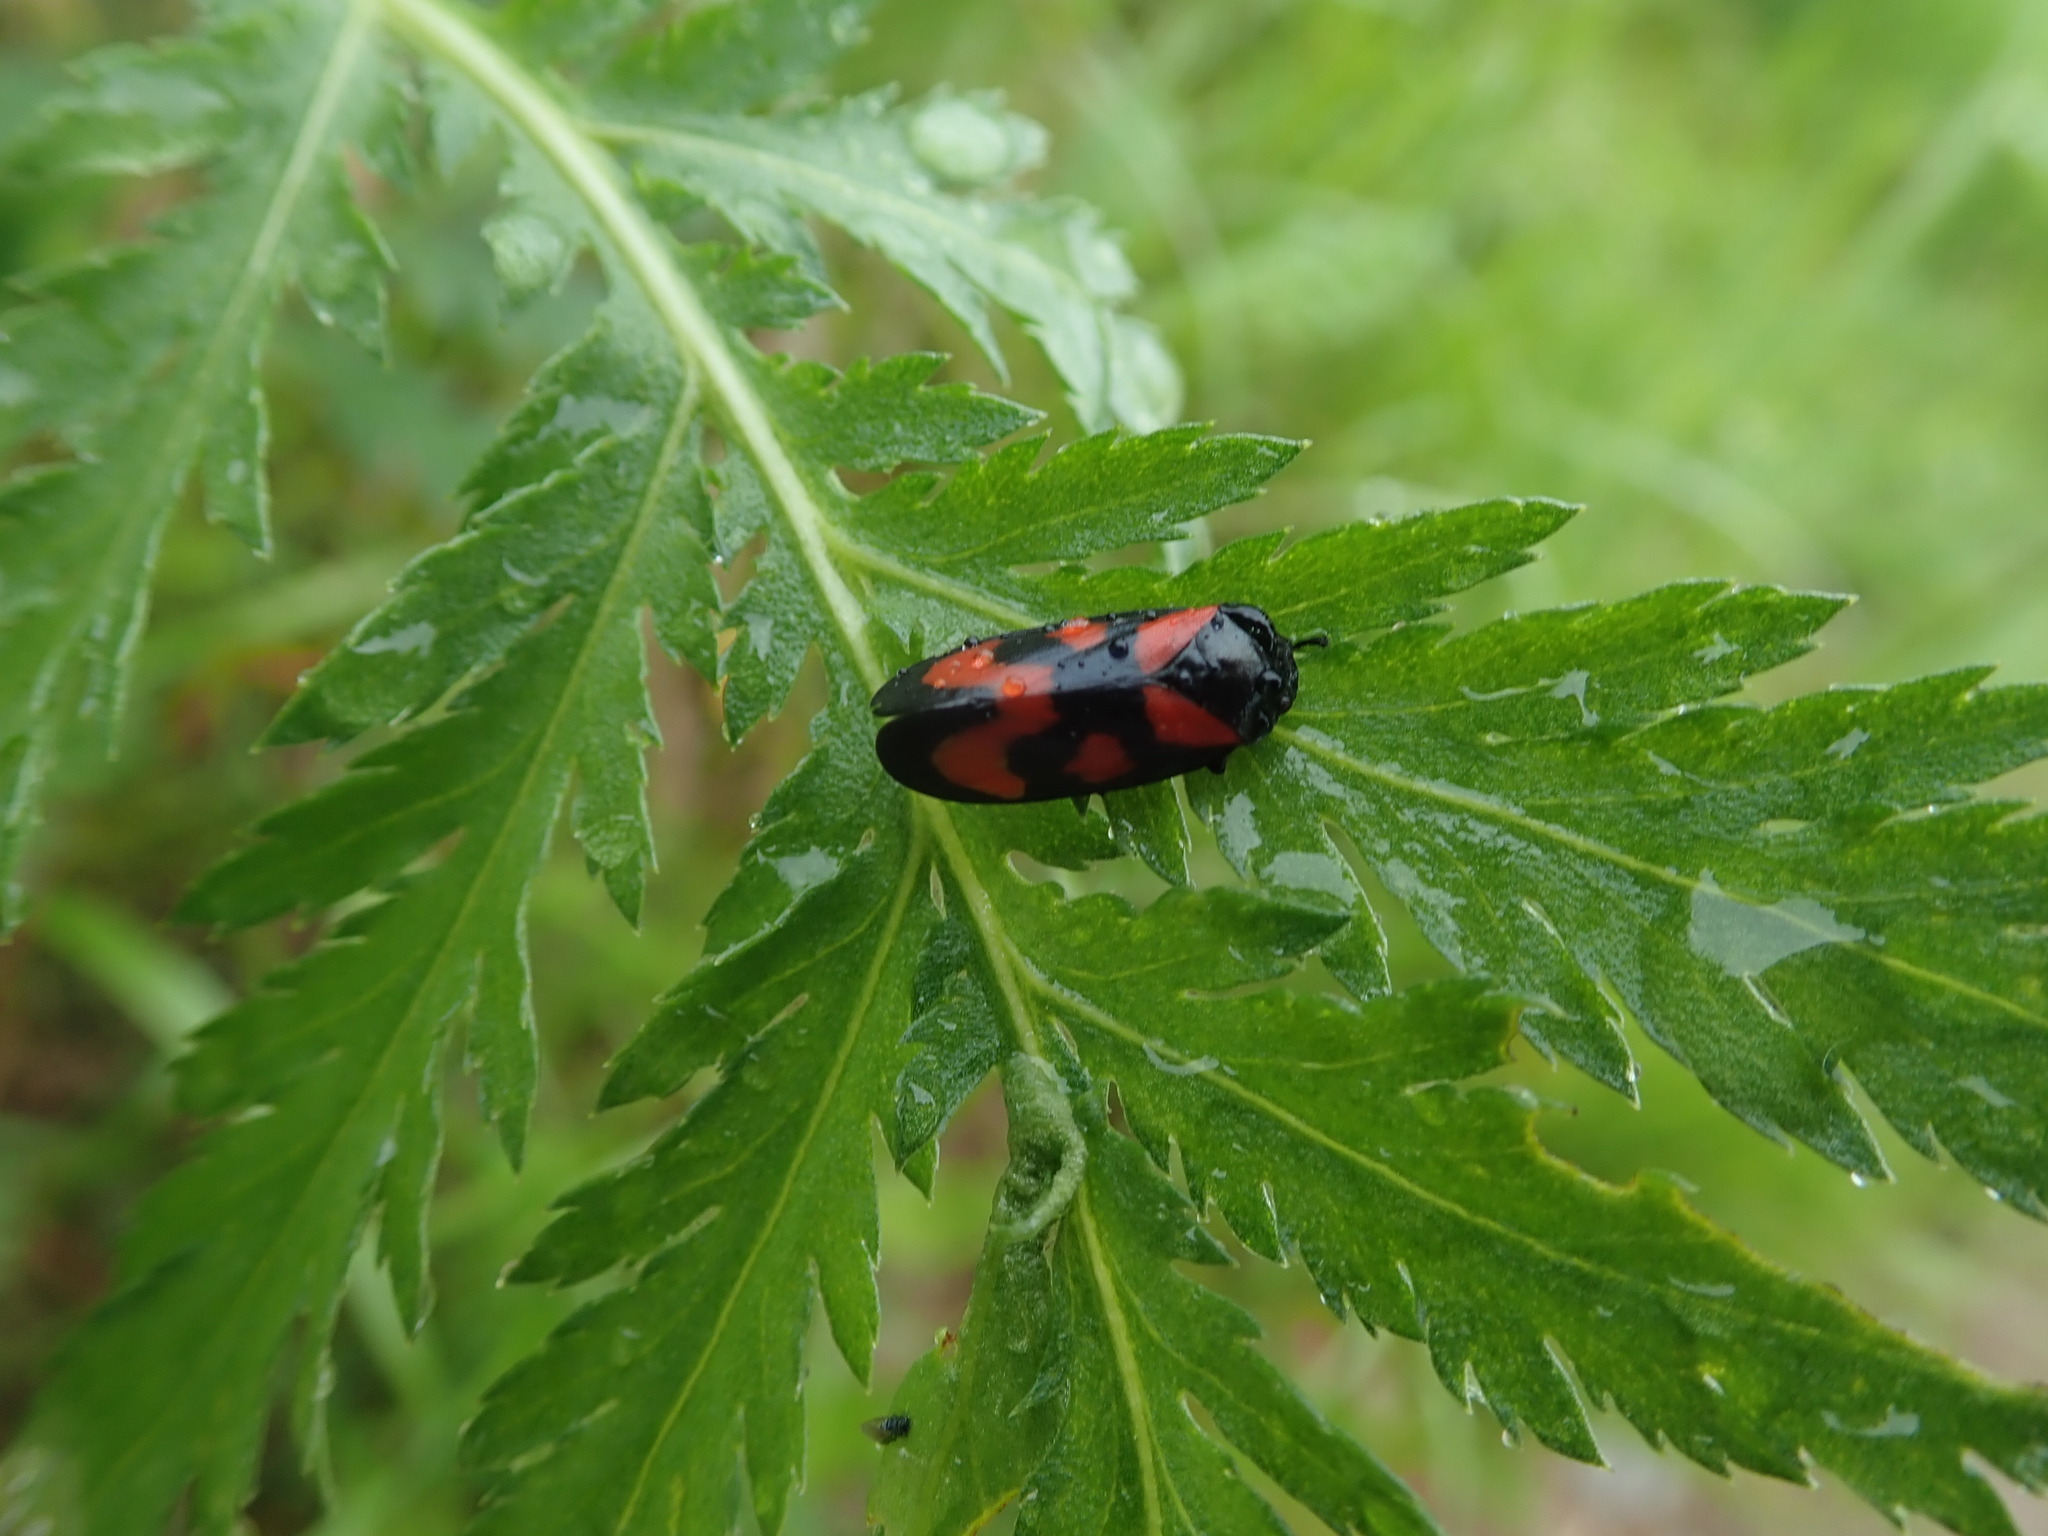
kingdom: Animalia
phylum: Arthropoda
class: Insecta
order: Hemiptera
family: Cercopidae
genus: Cercopis
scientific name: Cercopis vulnerata
